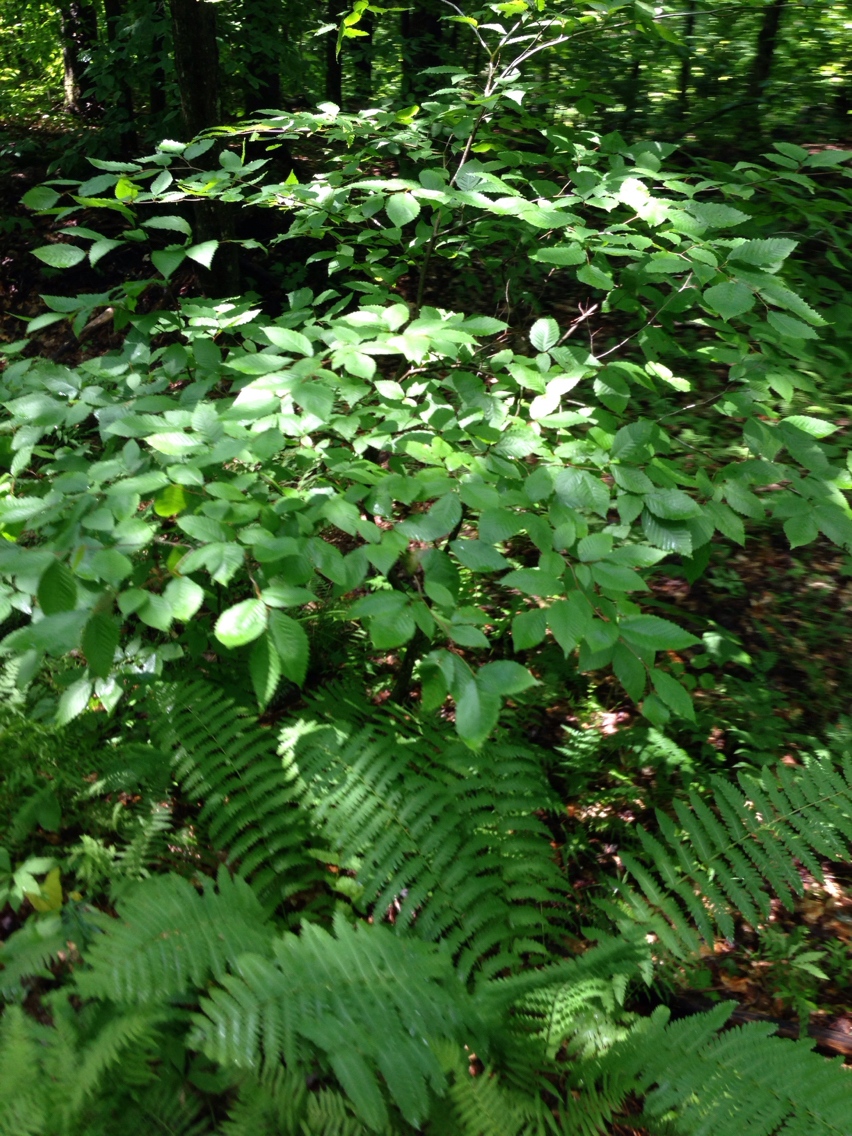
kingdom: Plantae
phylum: Tracheophyta
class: Magnoliopsida
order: Fagales
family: Fagaceae
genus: Fagus
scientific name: Fagus grandifolia
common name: American beech
